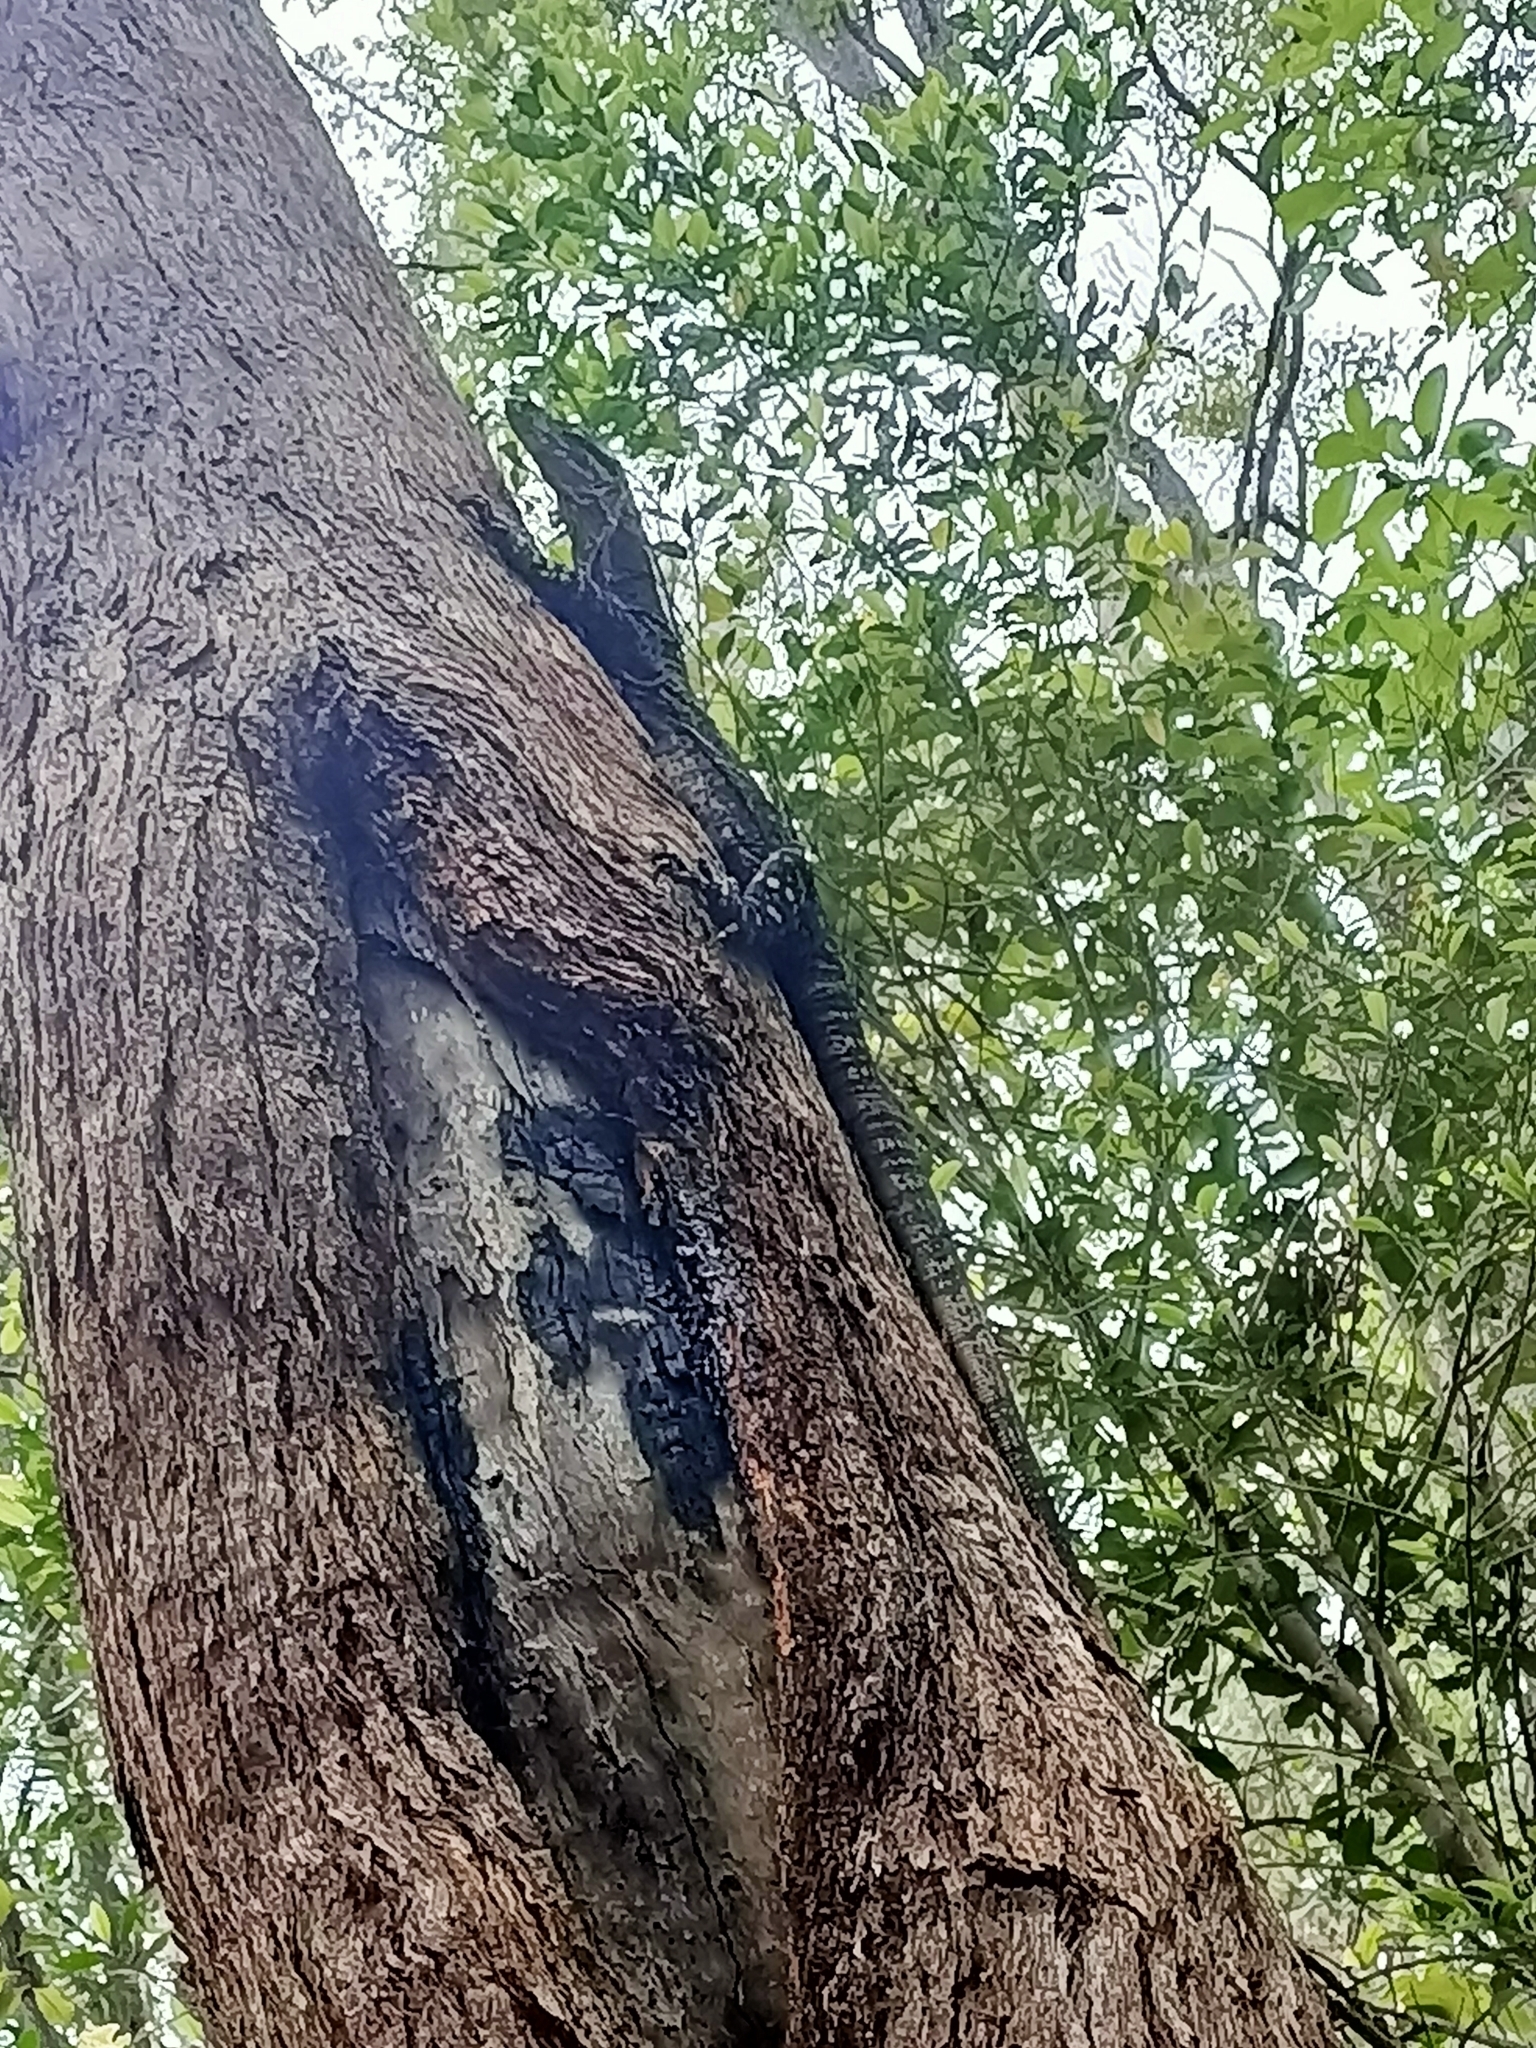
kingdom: Animalia
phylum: Chordata
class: Squamata
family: Varanidae
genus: Varanus
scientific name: Varanus varius
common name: Lace monitor
